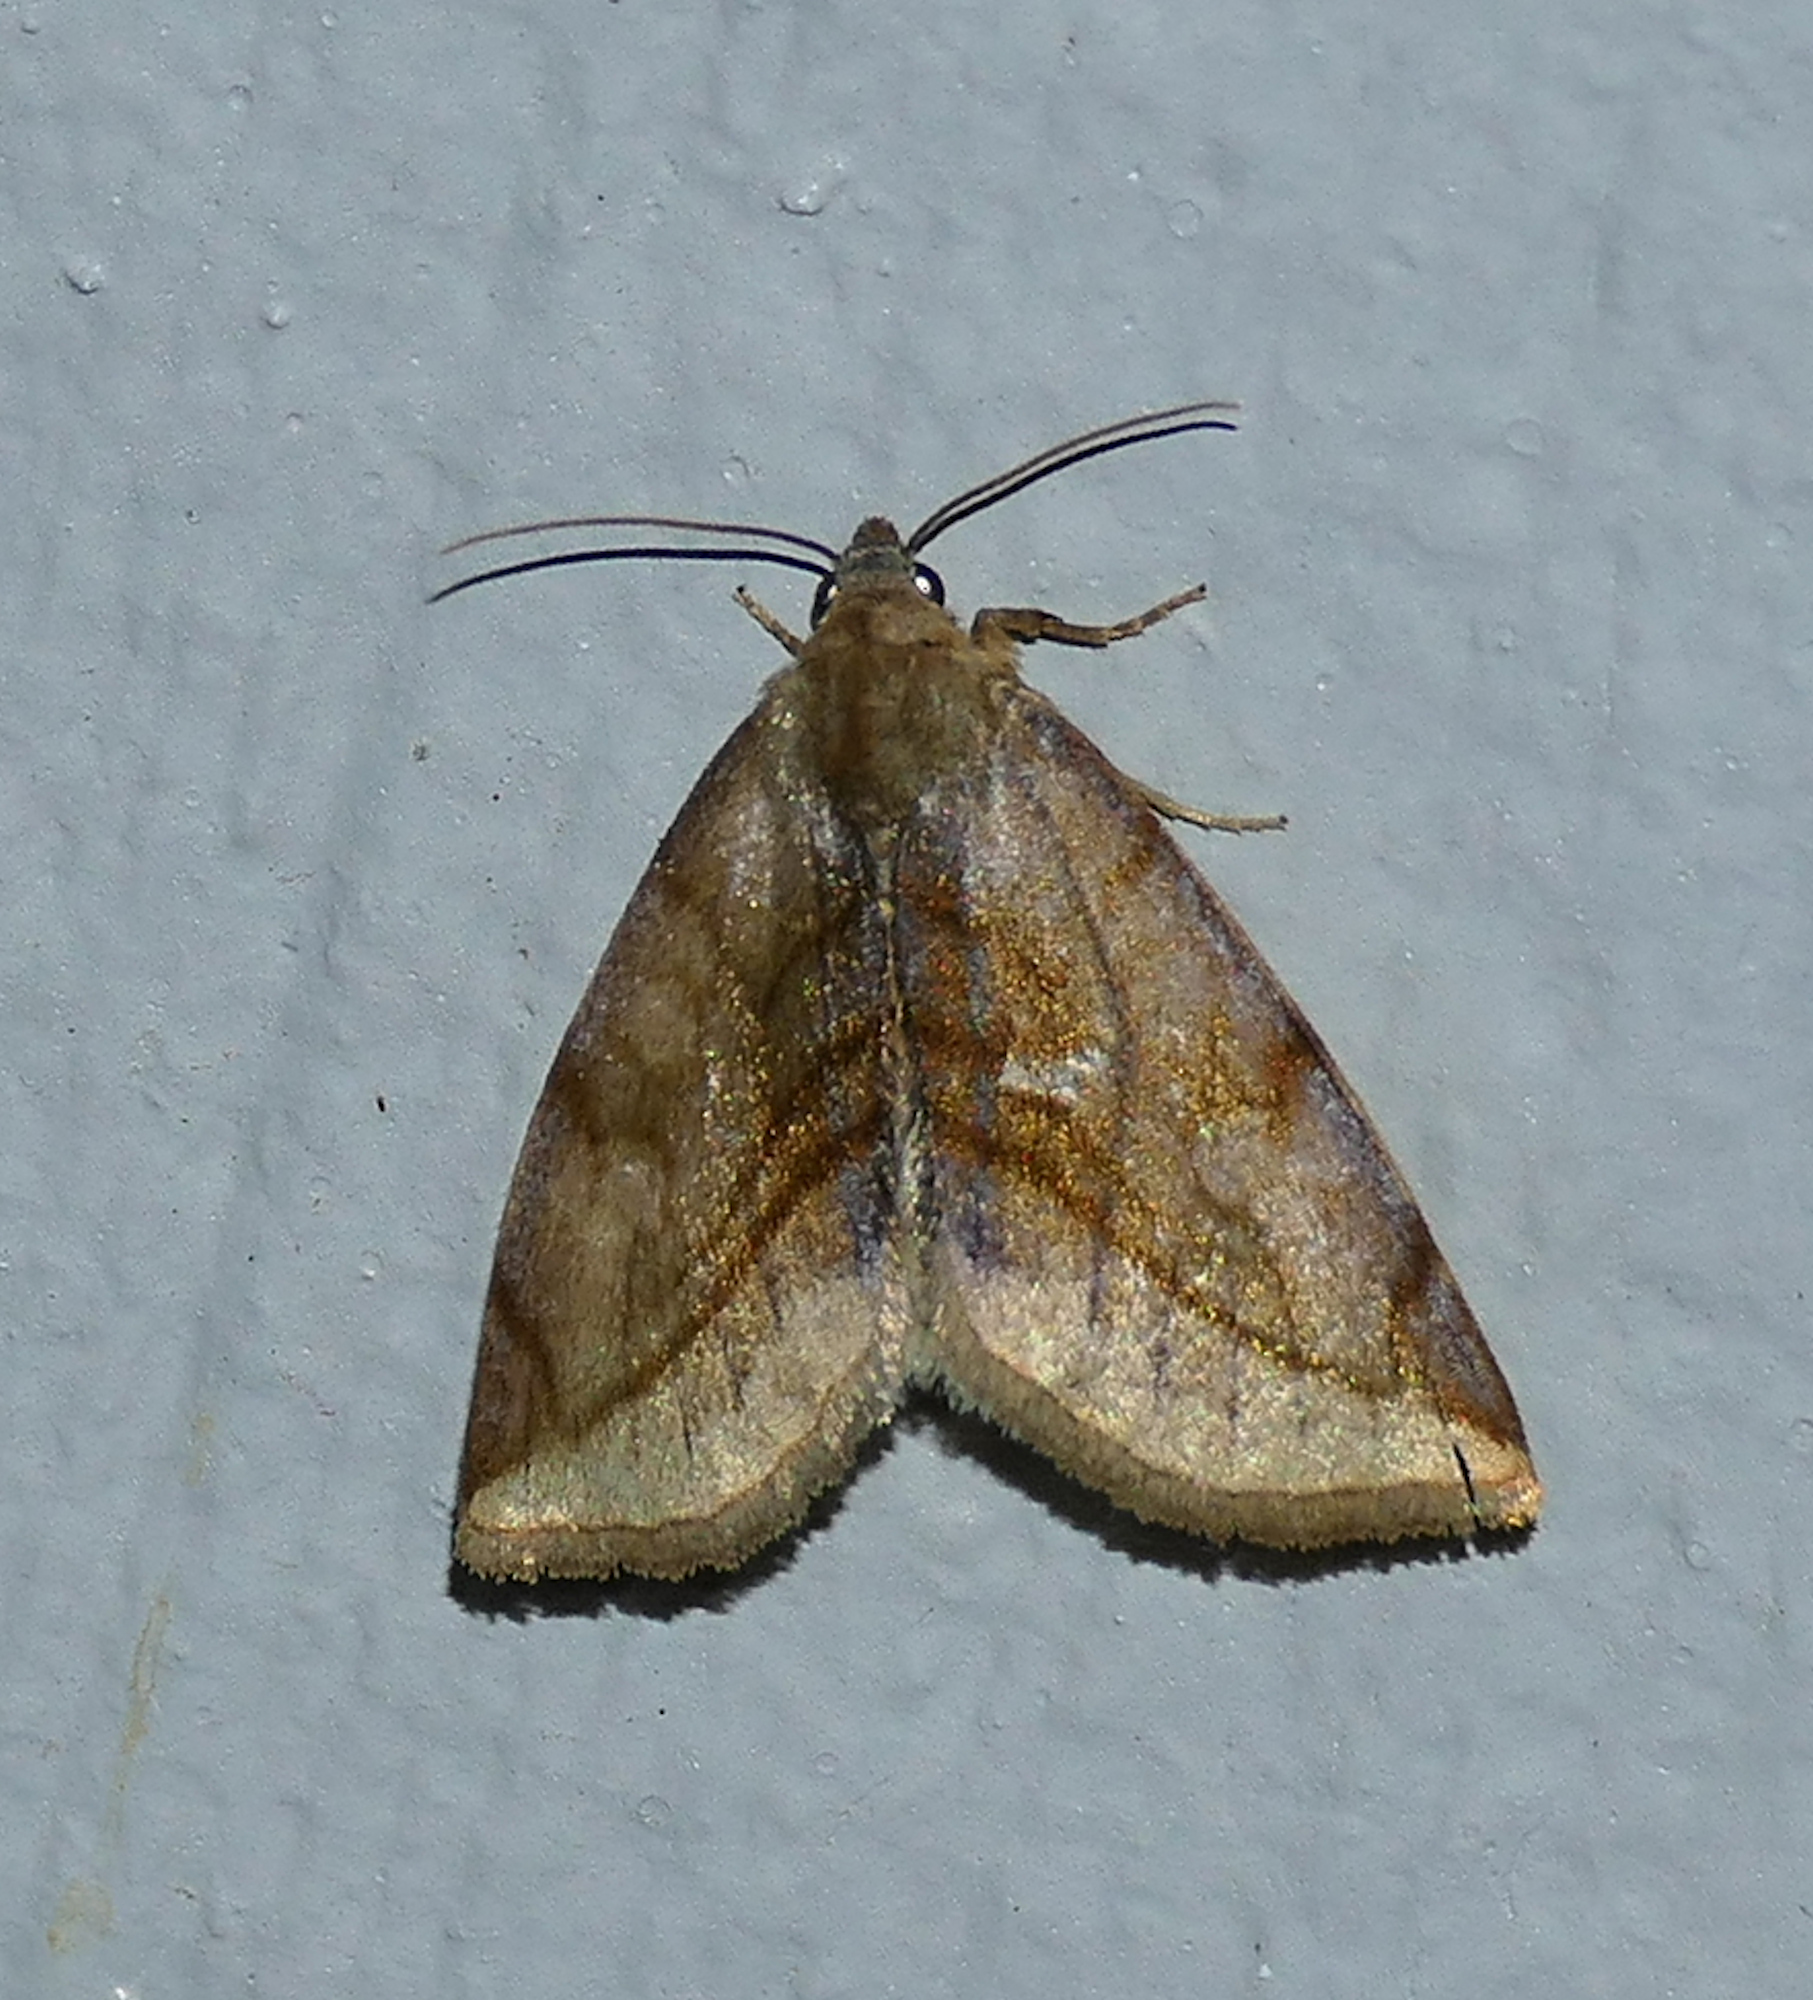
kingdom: Animalia
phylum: Arthropoda
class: Insecta
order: Lepidoptera
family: Noctuidae
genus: Plagiomimicus
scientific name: Plagiomimicus ochoa
